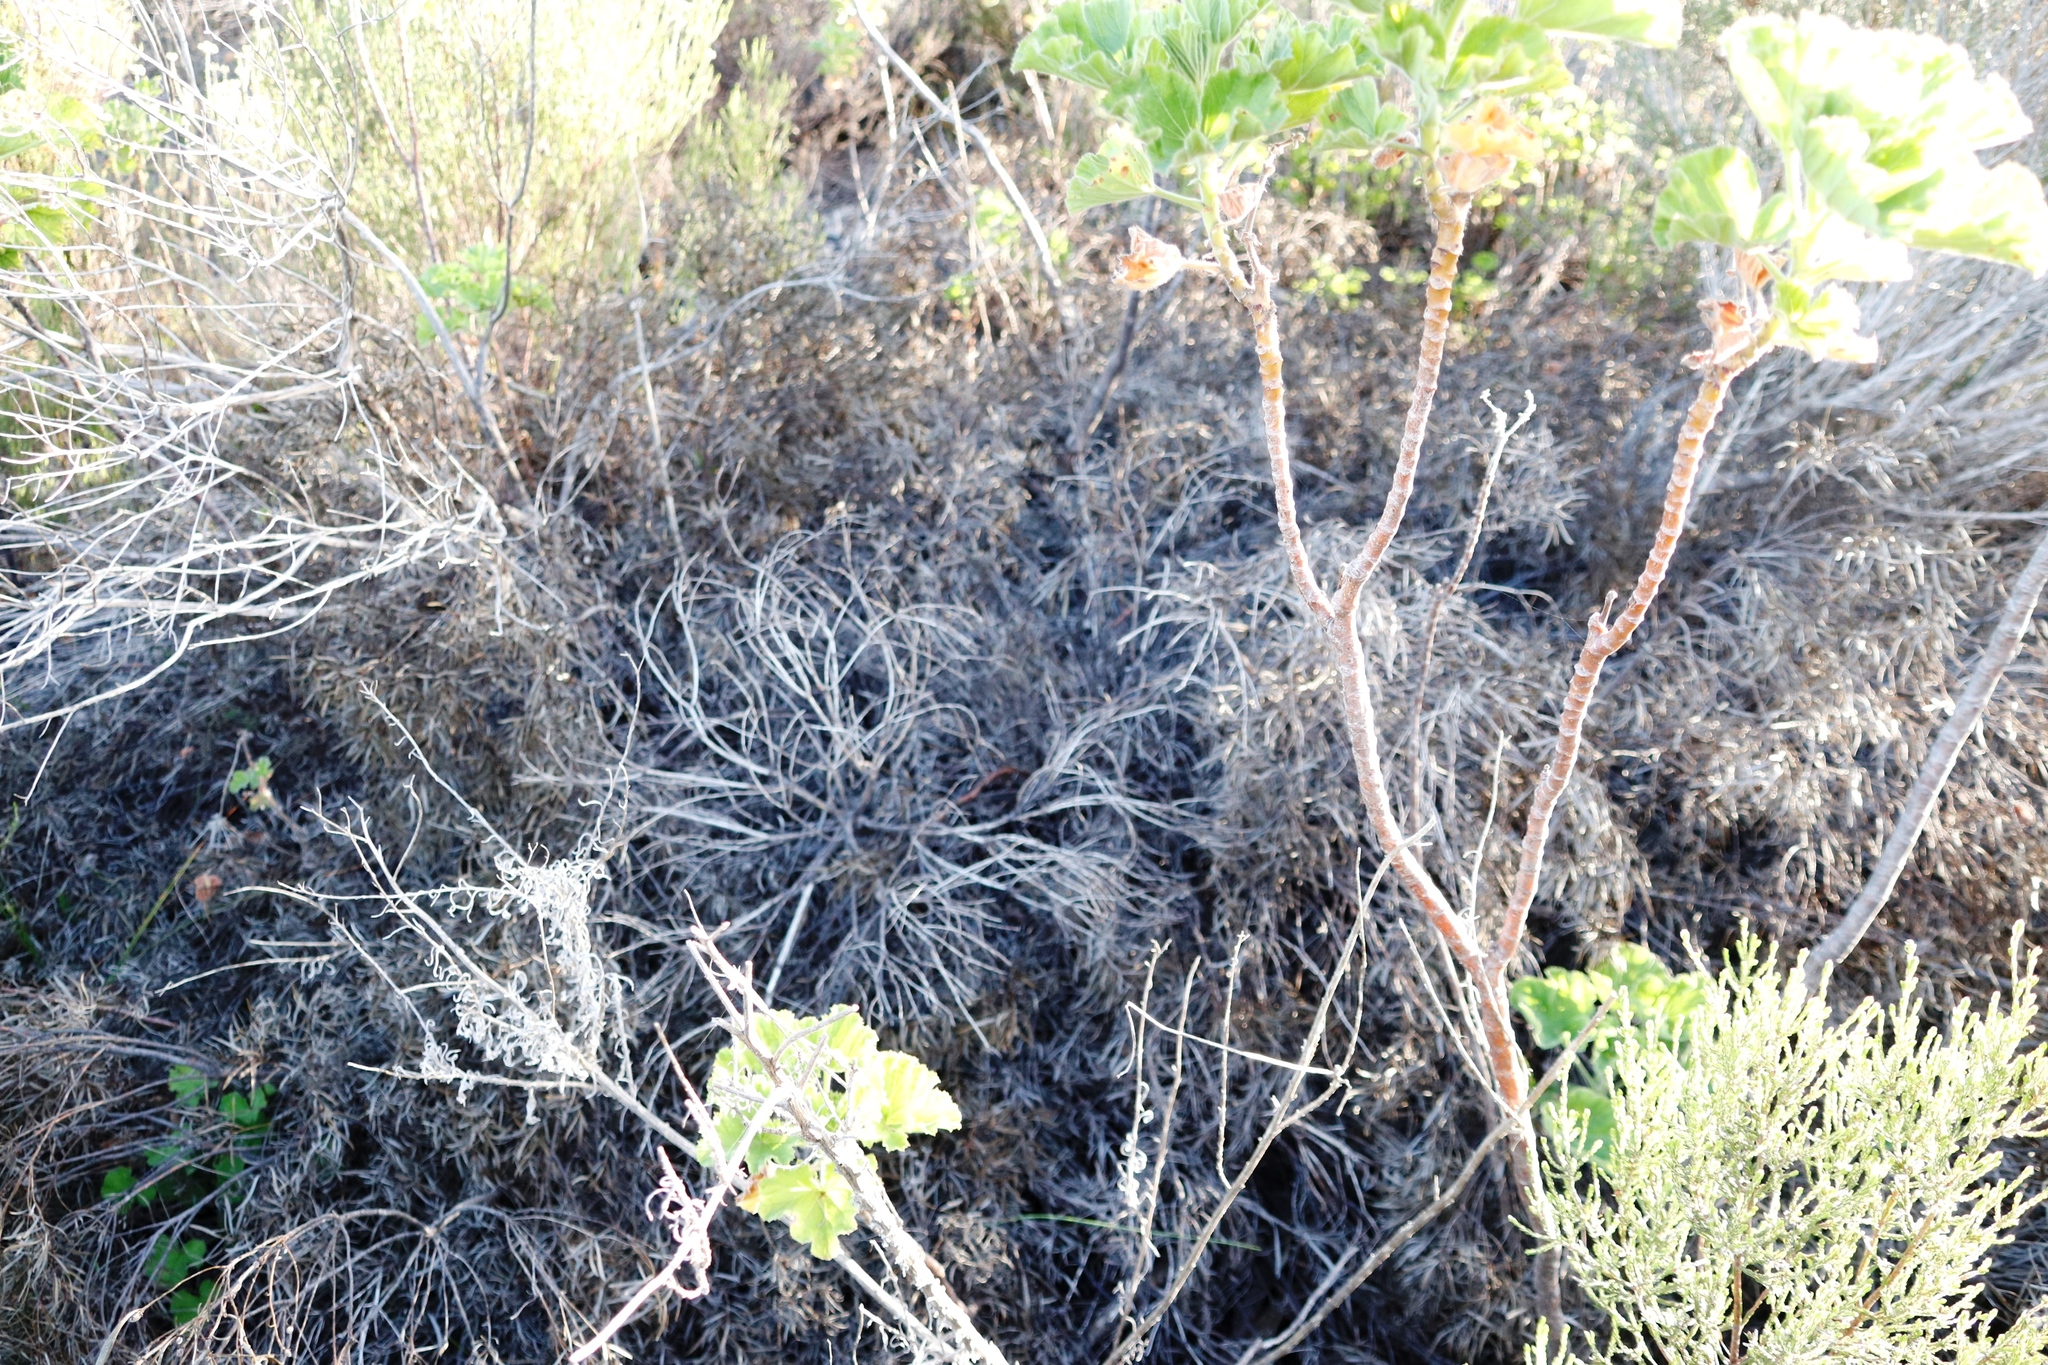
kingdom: Plantae
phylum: Tracheophyta
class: Magnoliopsida
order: Proteales
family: Proteaceae
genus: Leucadendron
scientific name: Leucadendron salignum
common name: Common sunshine conebush
